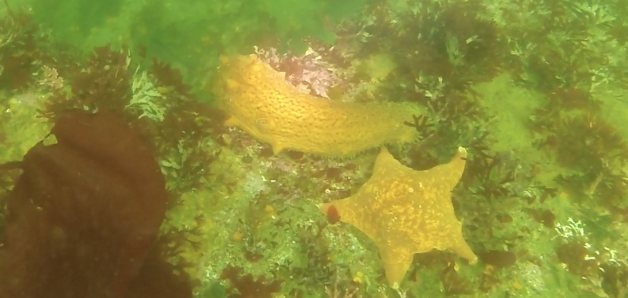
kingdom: Animalia
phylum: Echinodermata
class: Holothuroidea
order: Synallactida
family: Stichopodidae
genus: Apostichopus
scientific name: Apostichopus parvimensis
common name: Warty sea cucumber
